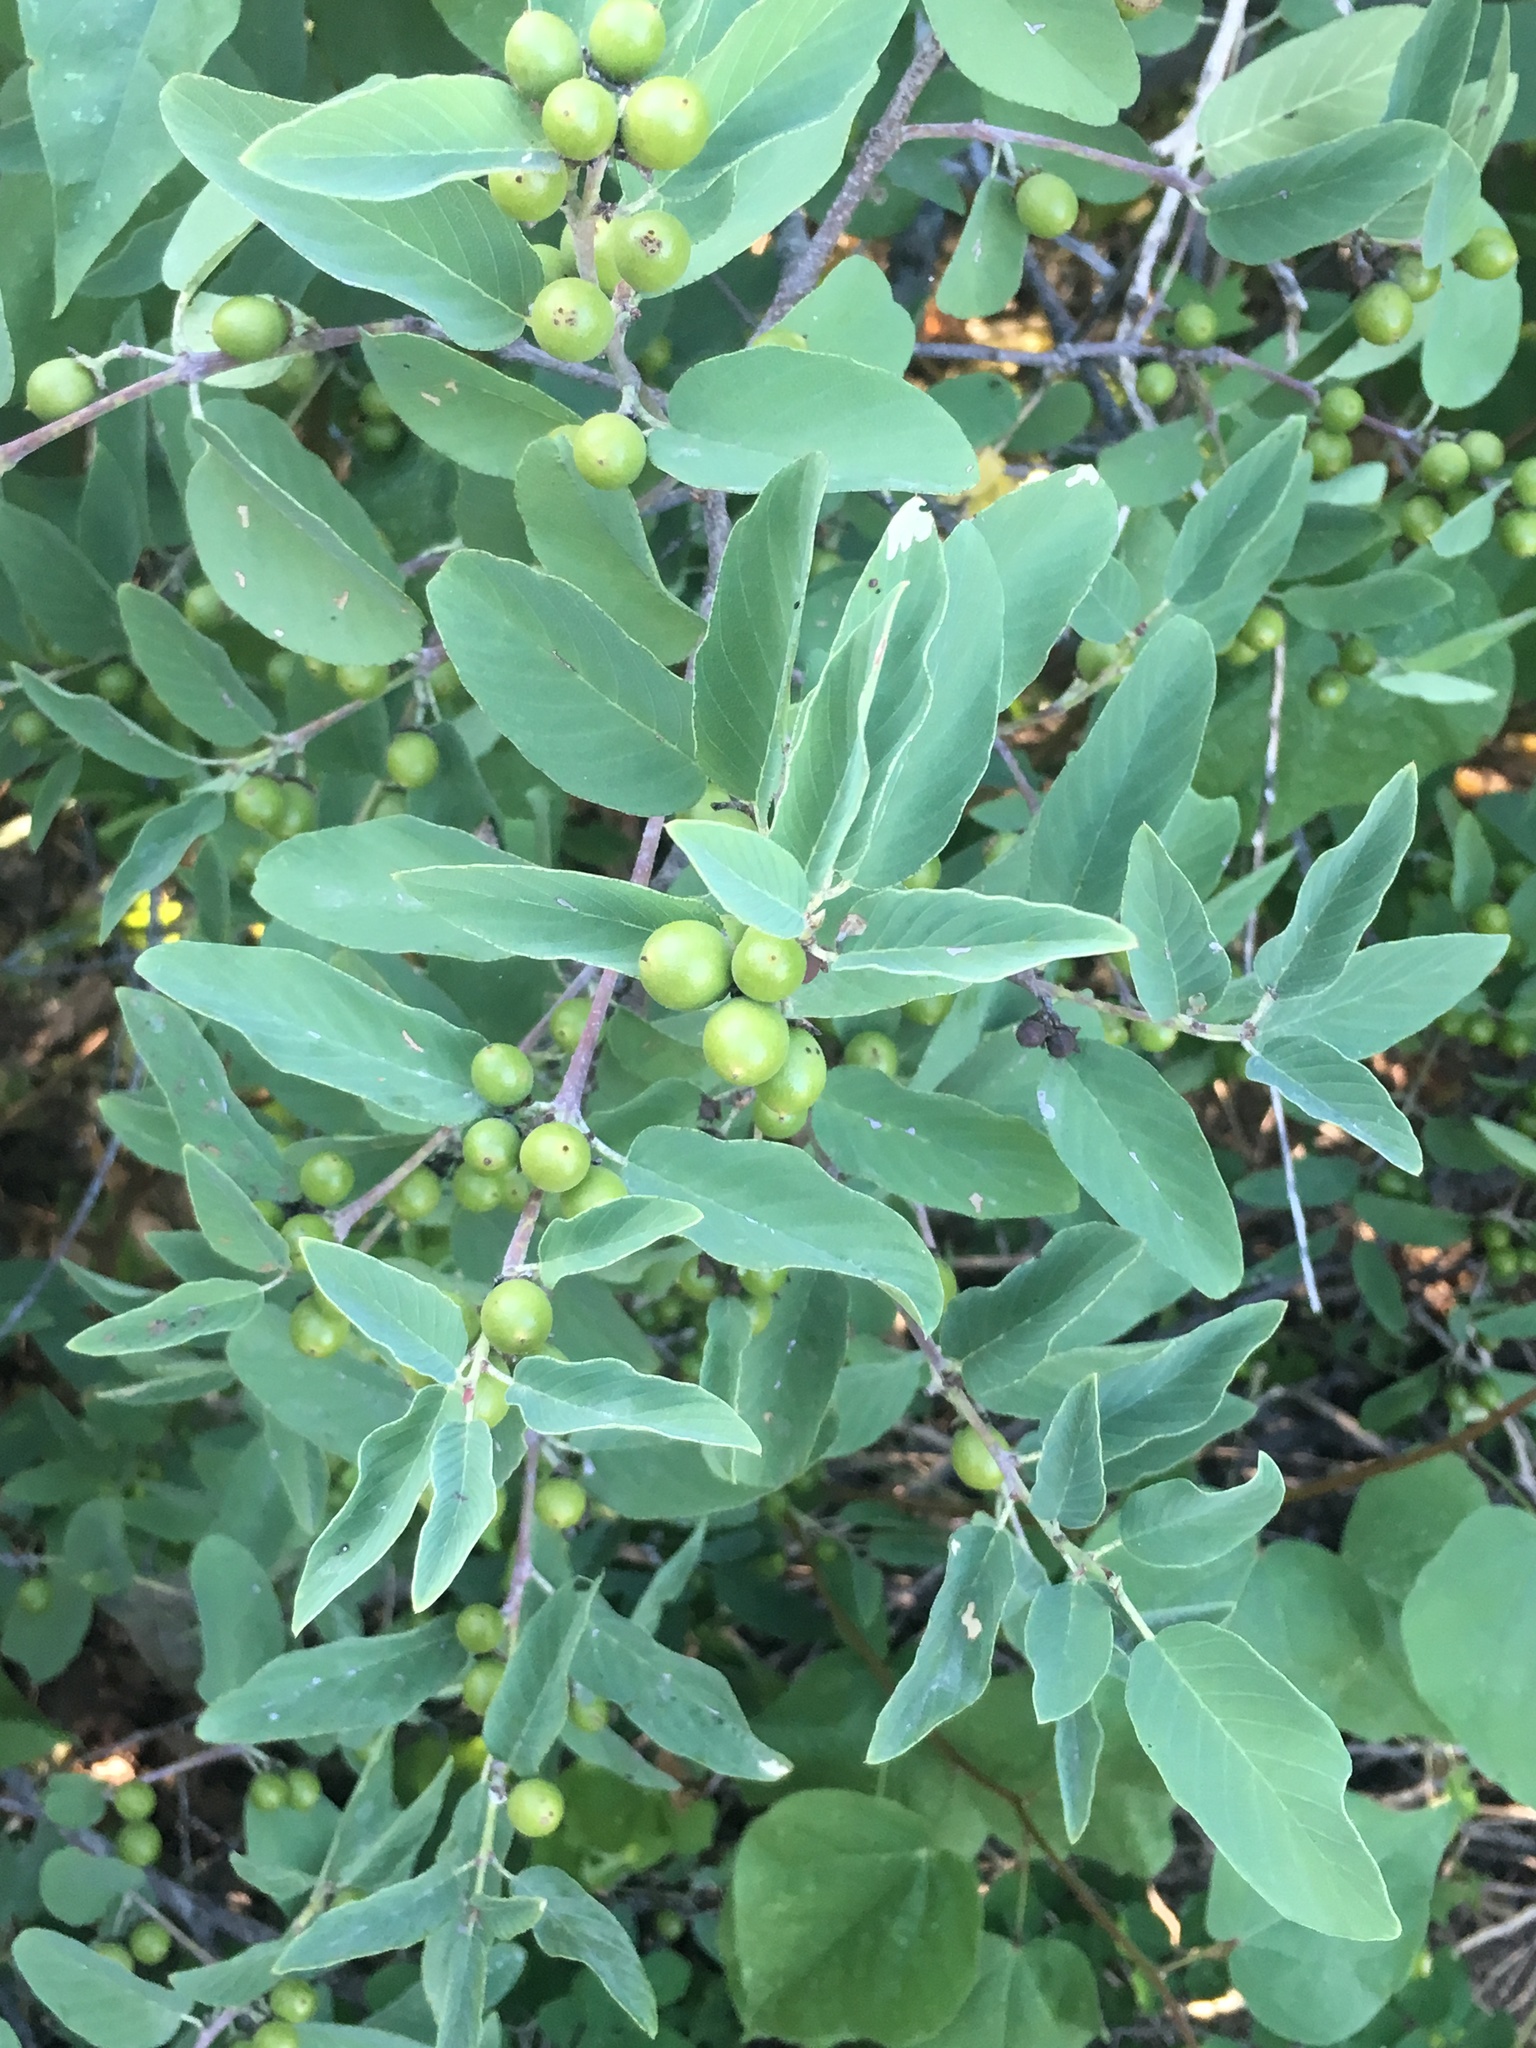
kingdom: Plantae
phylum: Tracheophyta
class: Magnoliopsida
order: Rosales
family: Rhamnaceae
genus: Karwinskia
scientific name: Karwinskia humboldtiana
